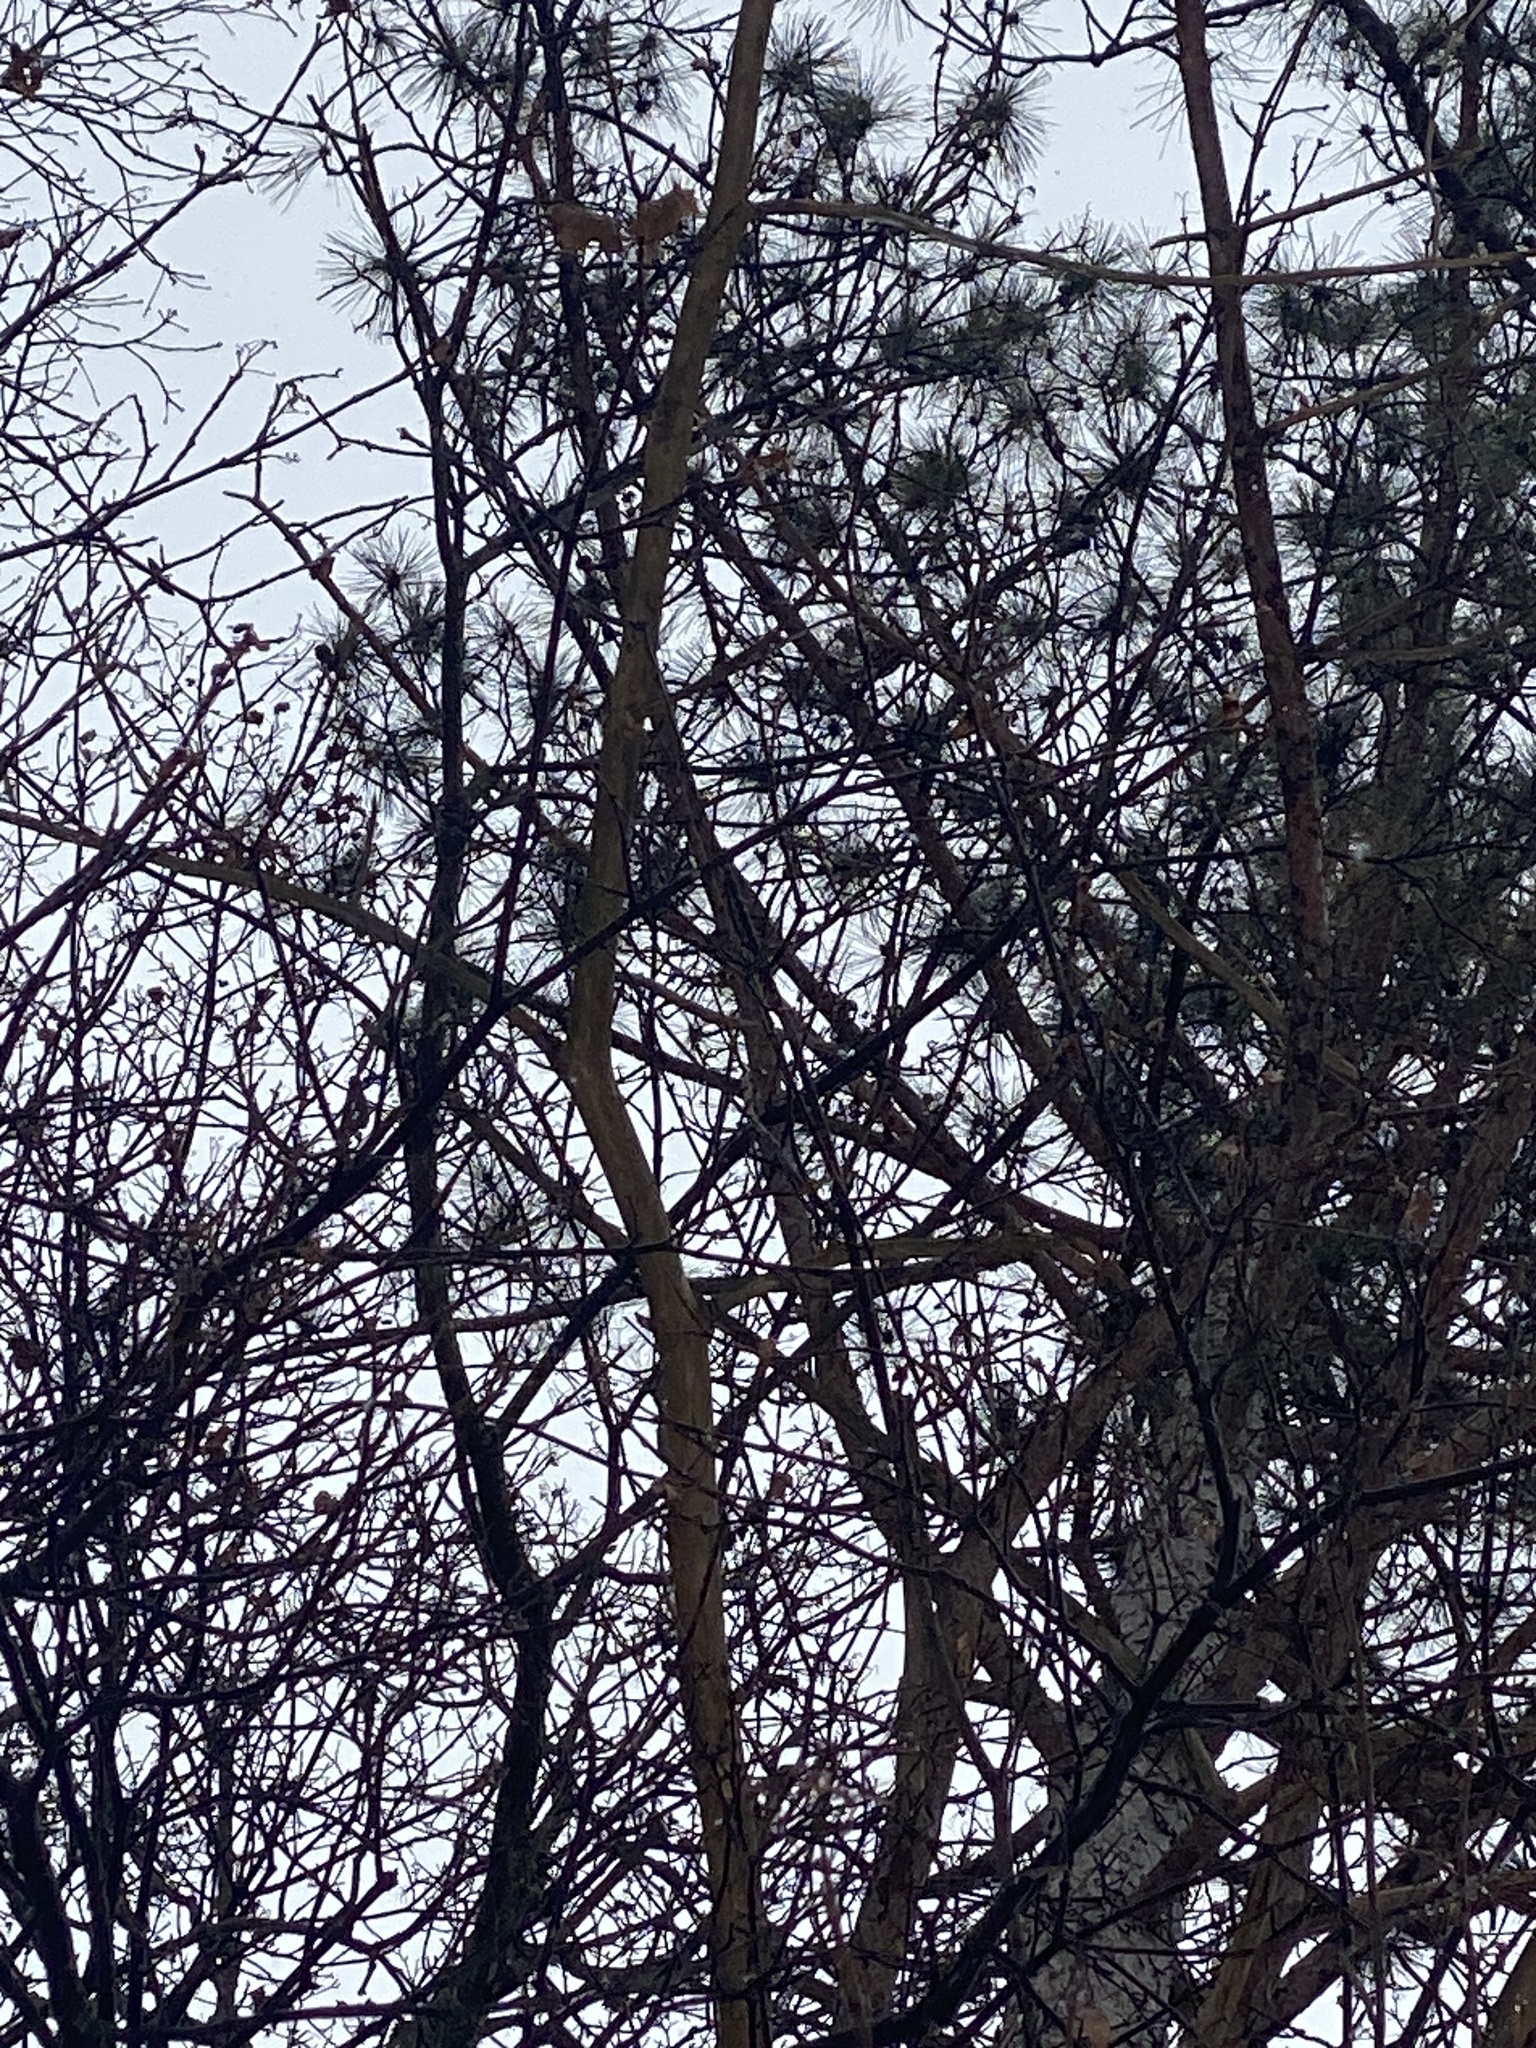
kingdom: Plantae
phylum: Tracheophyta
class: Pinopsida
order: Pinales
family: Pinaceae
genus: Pinus
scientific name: Pinus resinosa
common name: Norway pine
